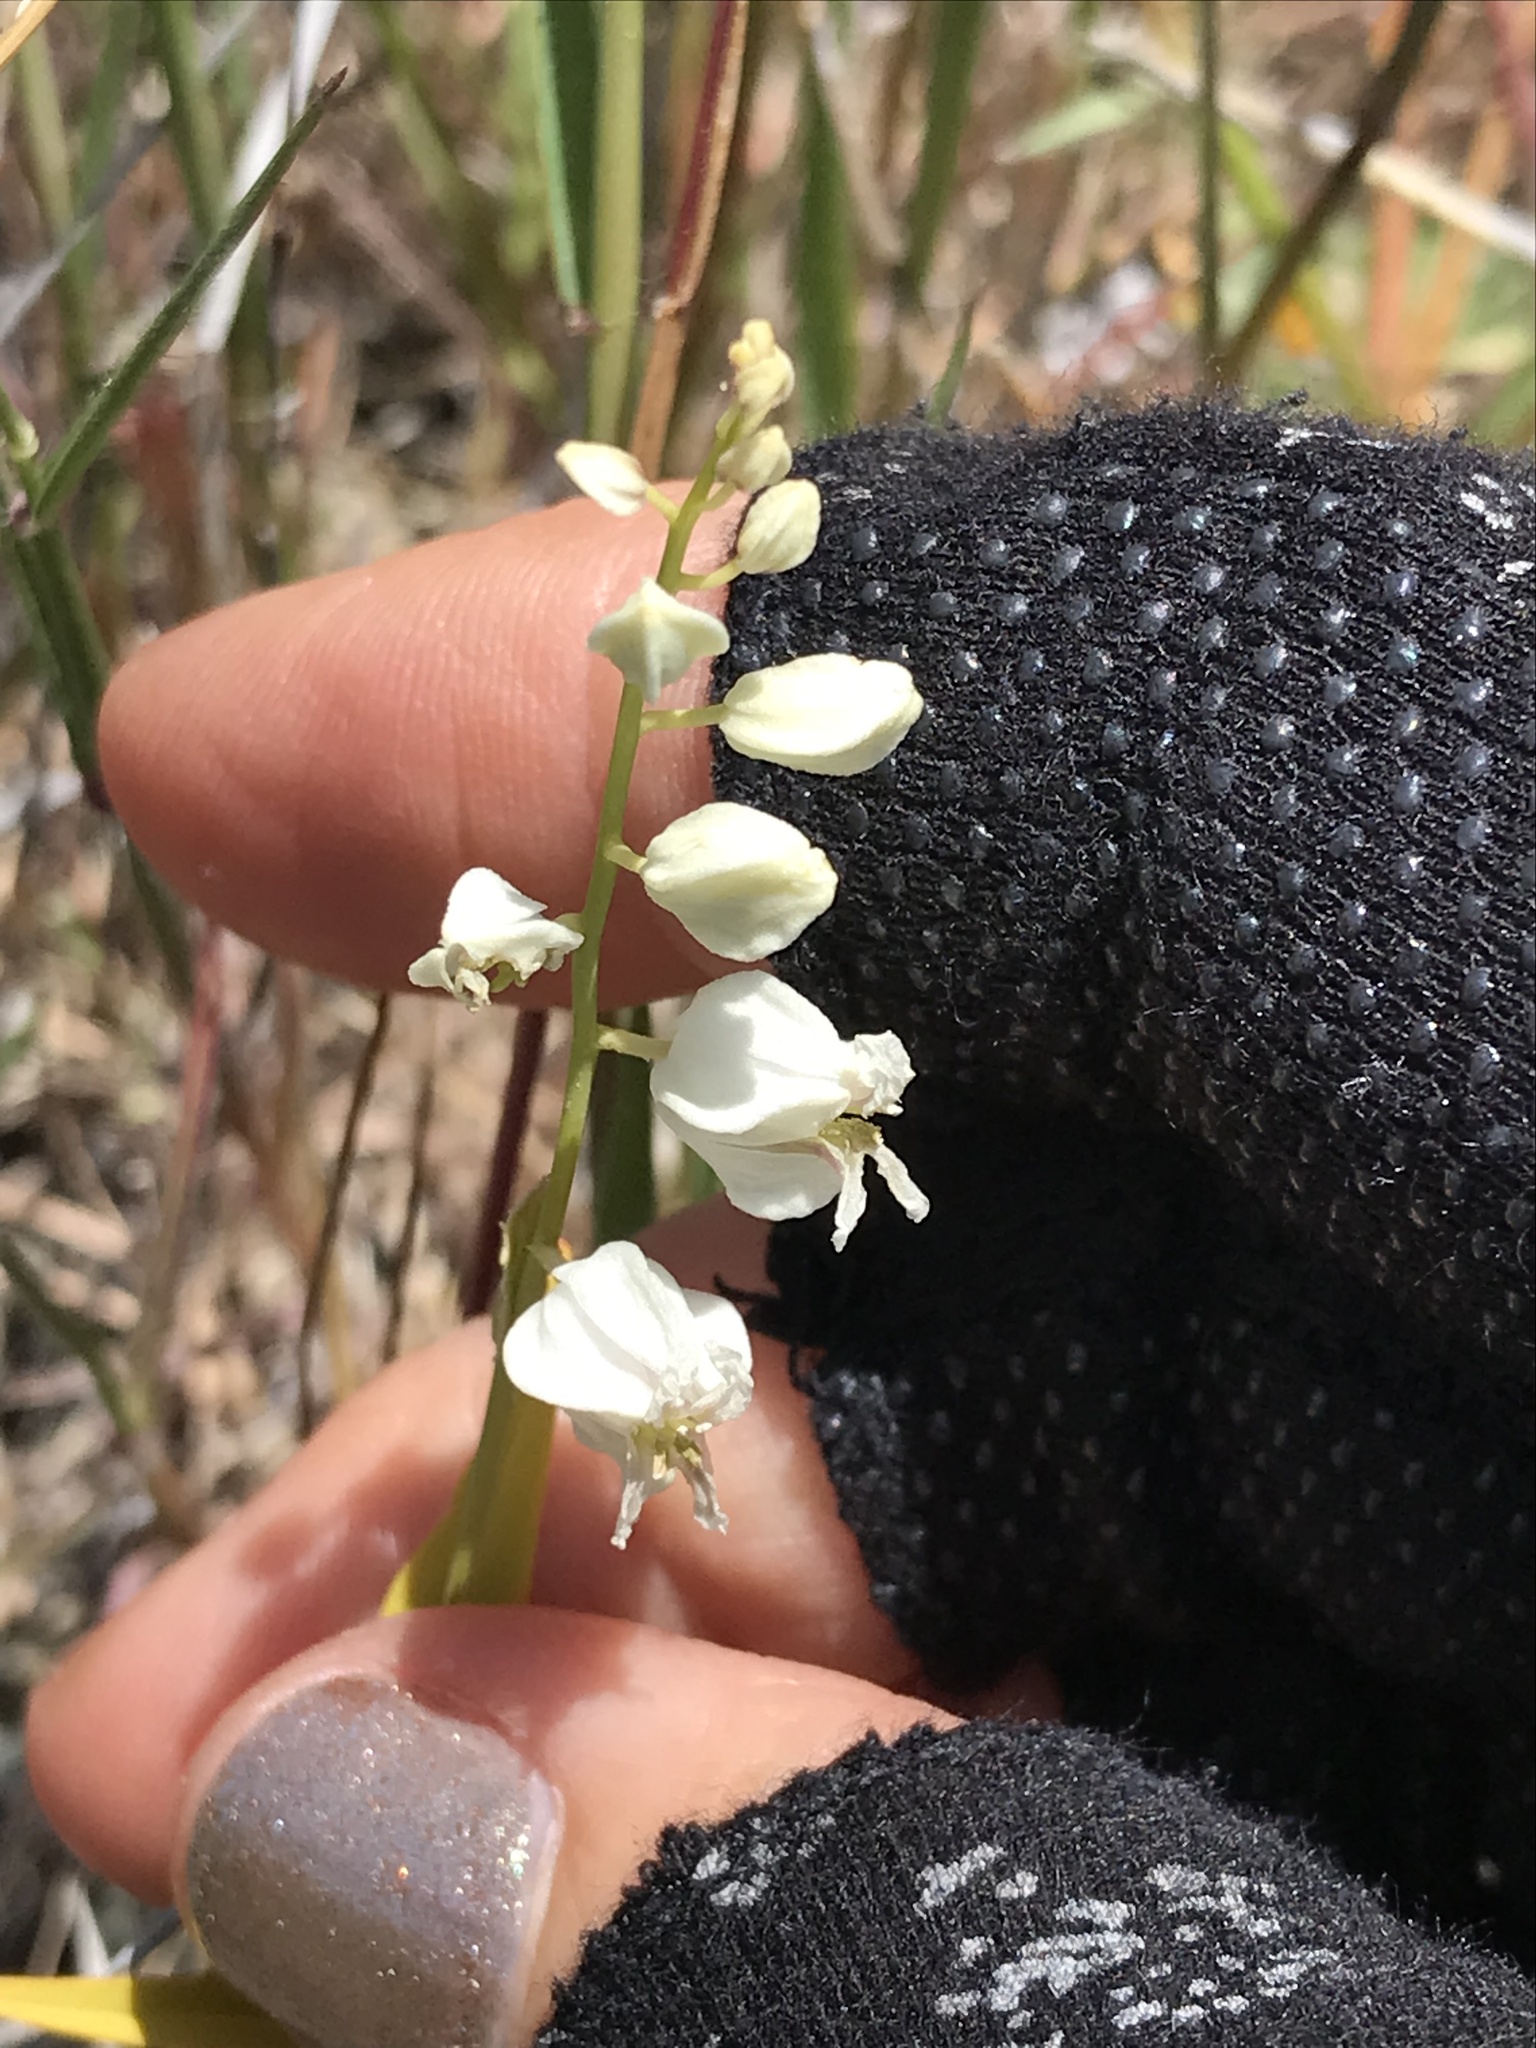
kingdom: Plantae
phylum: Tracheophyta
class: Magnoliopsida
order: Brassicales
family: Brassicaceae
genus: Streptanthus
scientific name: Streptanthus glandulosus
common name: Jewel-flower
